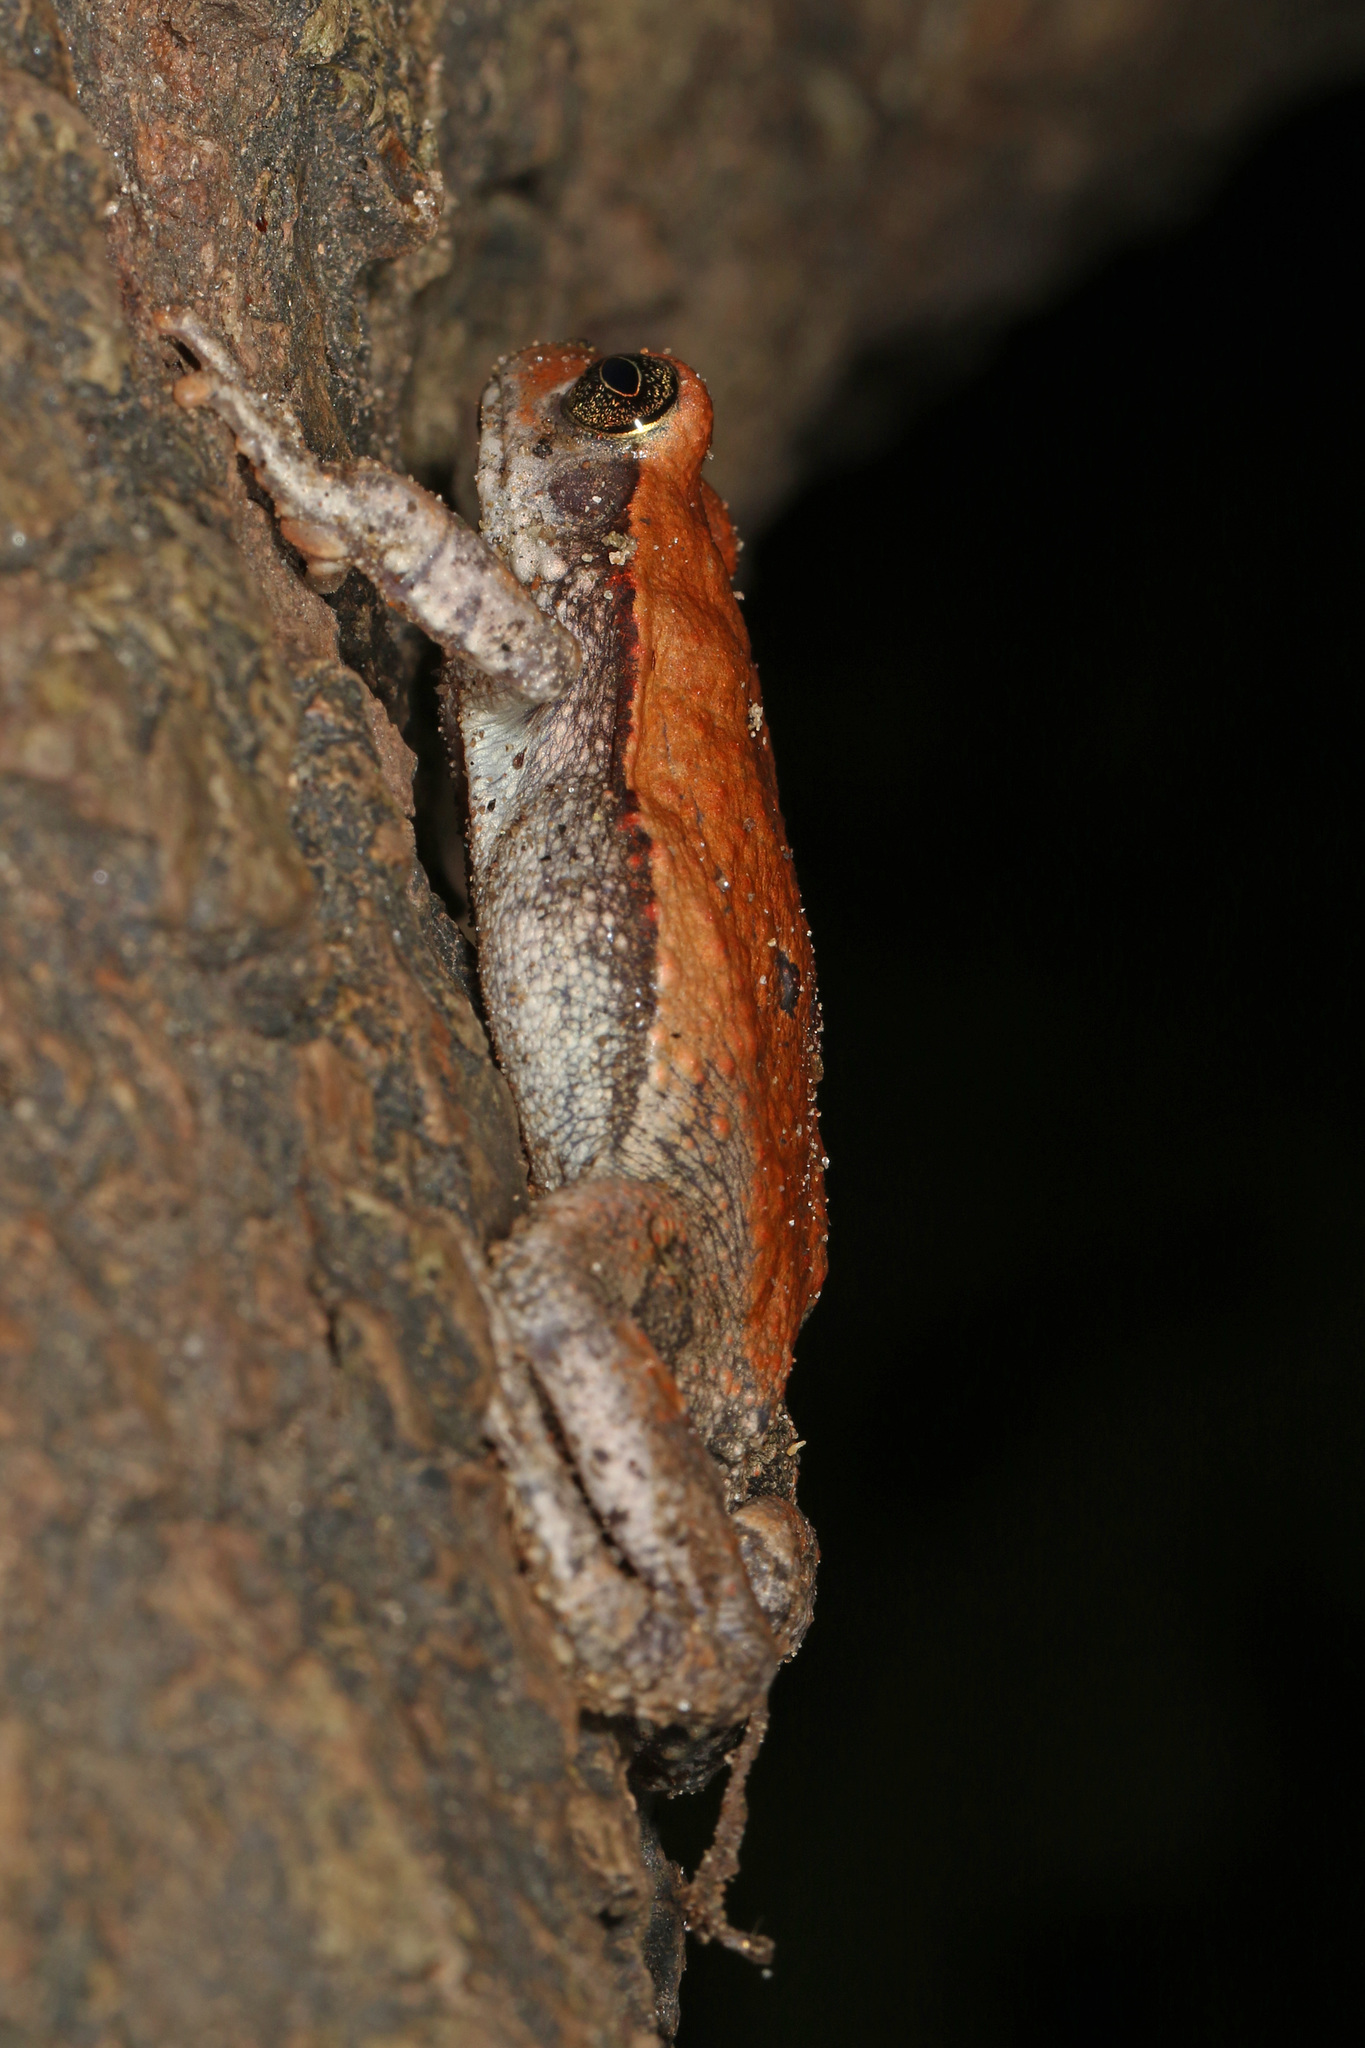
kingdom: Animalia
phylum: Chordata
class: Amphibia
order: Anura
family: Bufonidae
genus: Schismaderma
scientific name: Schismaderma carens
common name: African split-skin toad
